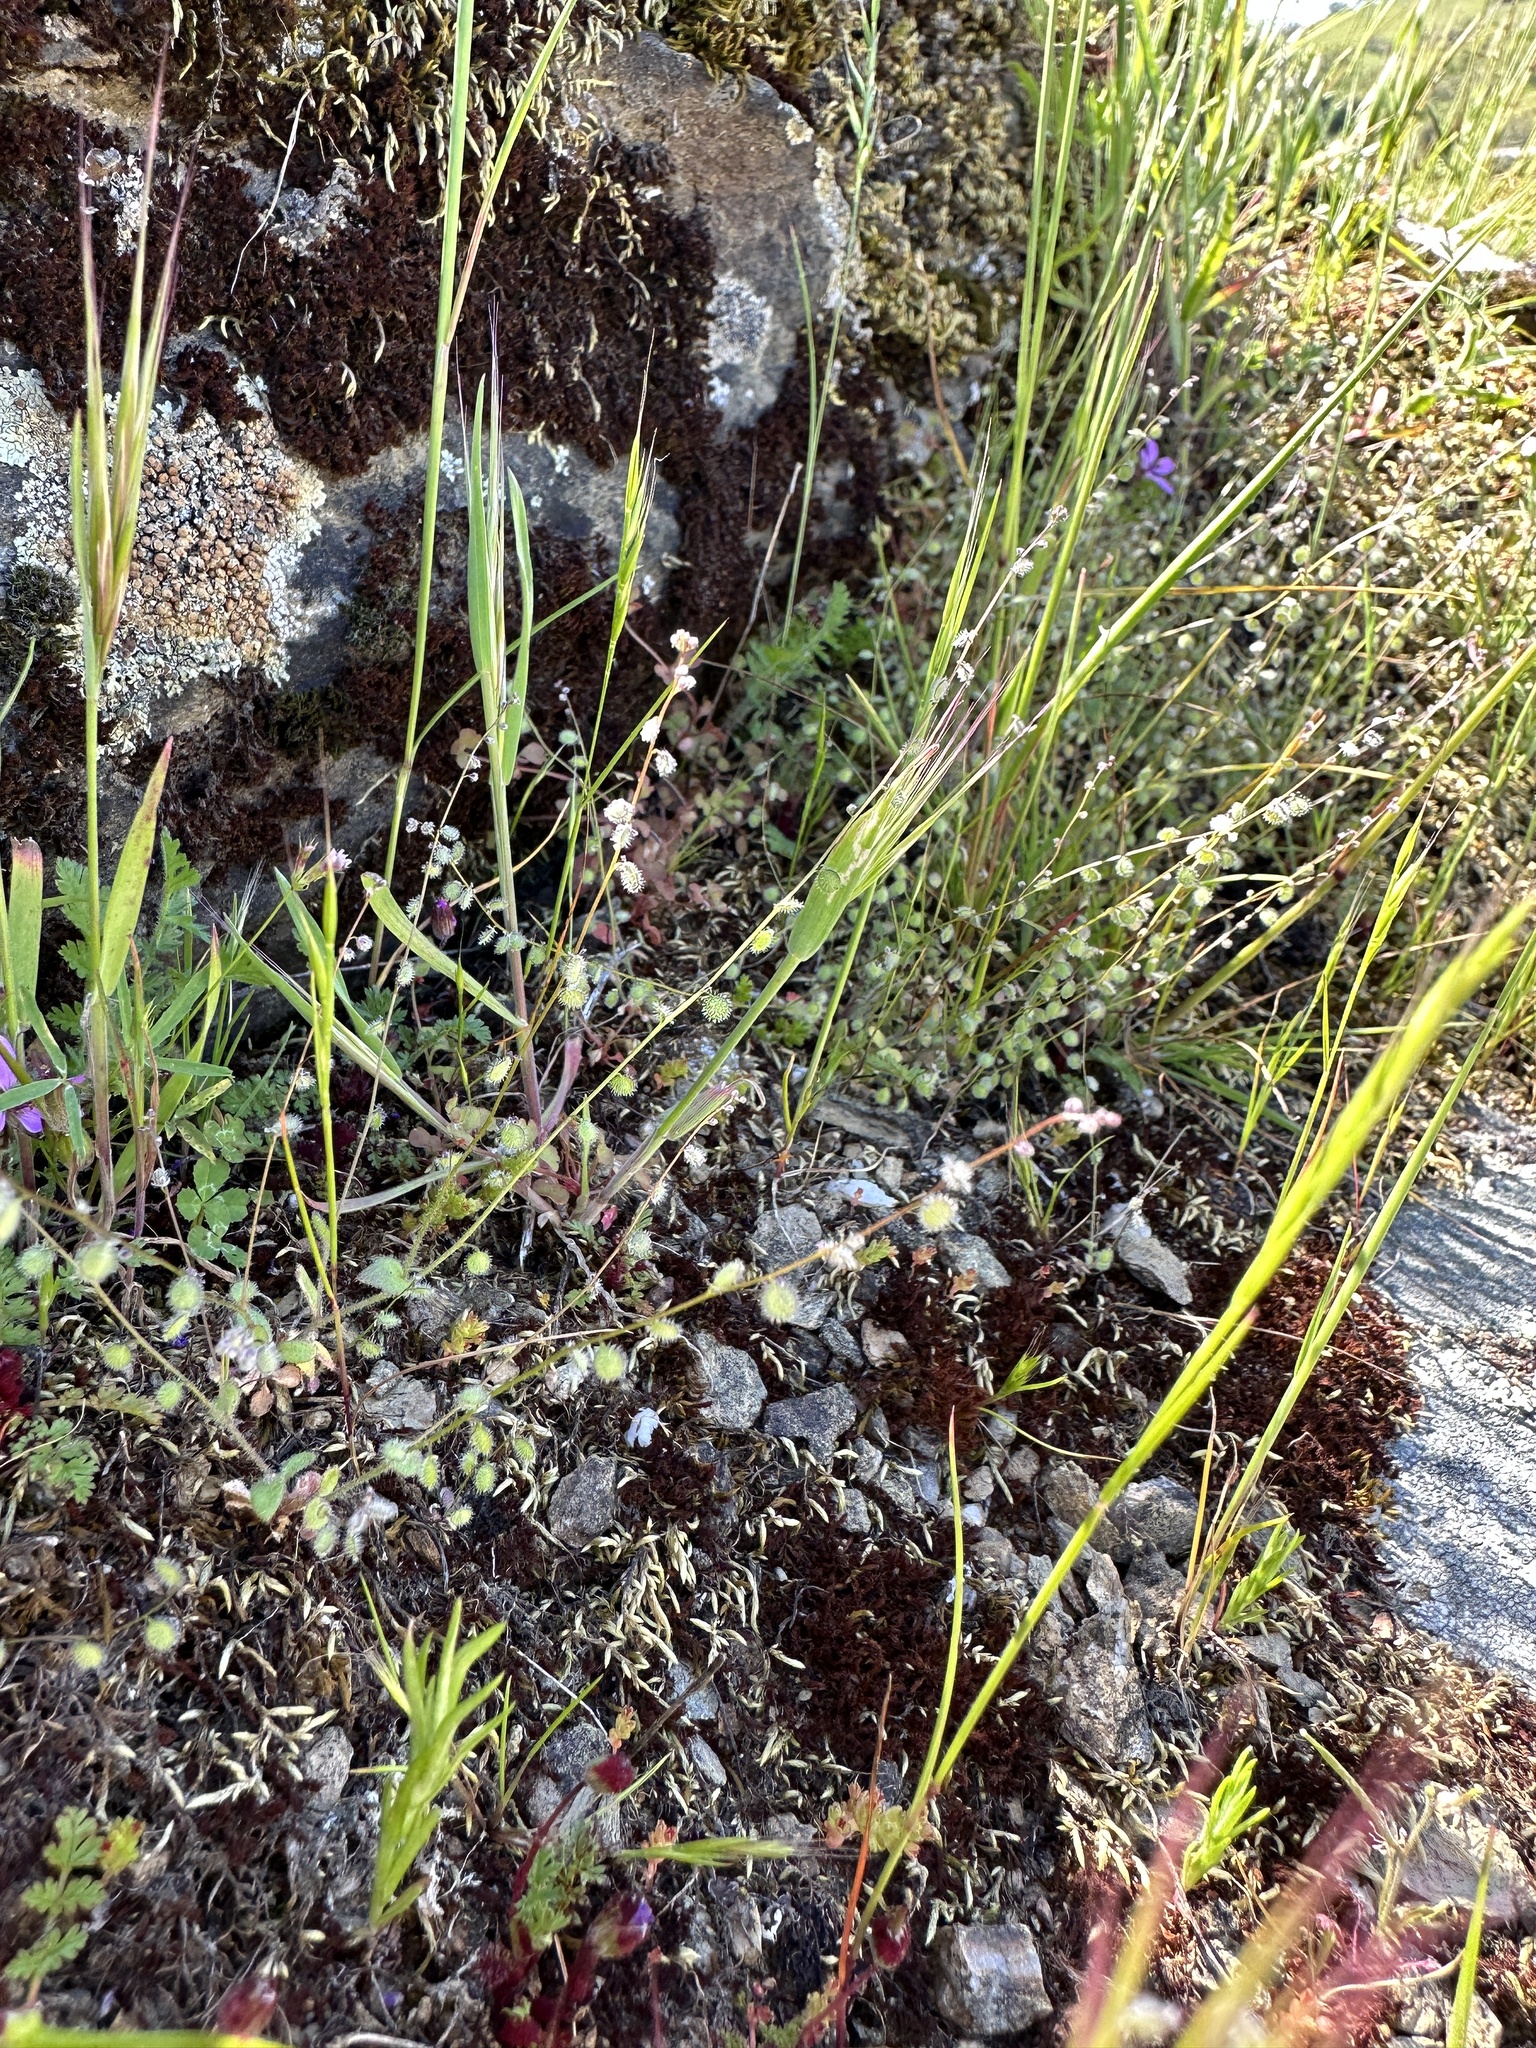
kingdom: Plantae
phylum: Tracheophyta
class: Magnoliopsida
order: Brassicales
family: Brassicaceae
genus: Athysanus
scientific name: Athysanus pusillus
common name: Common sandweed
